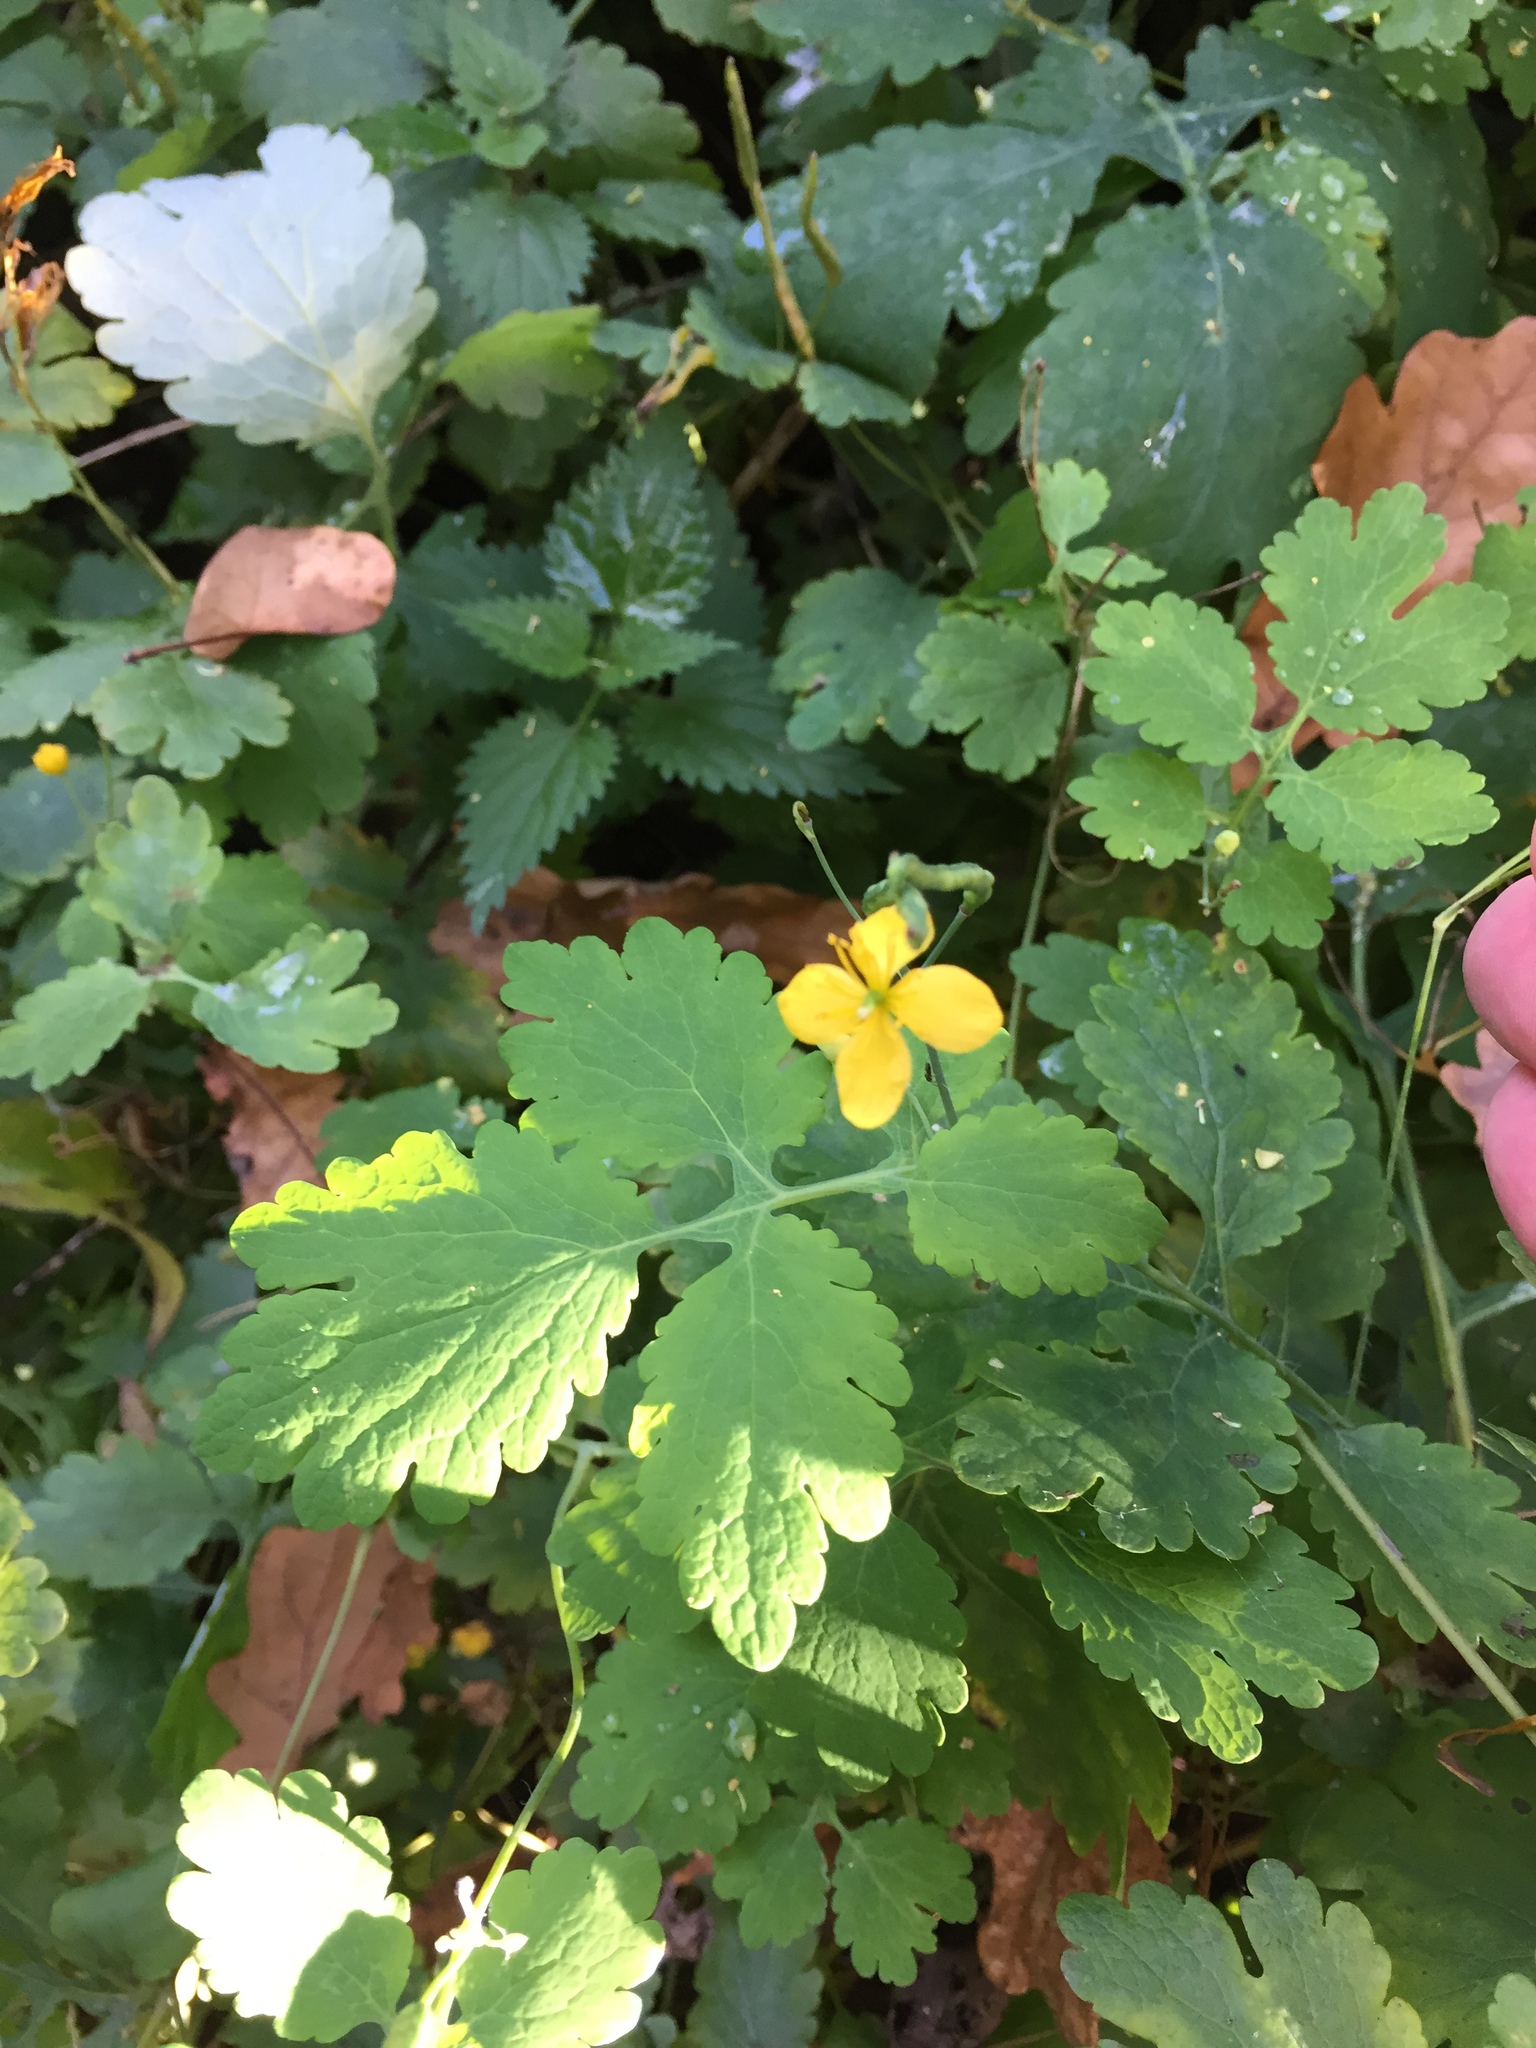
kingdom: Plantae
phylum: Tracheophyta
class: Magnoliopsida
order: Ranunculales
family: Papaveraceae
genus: Chelidonium
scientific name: Chelidonium majus
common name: Greater celandine
